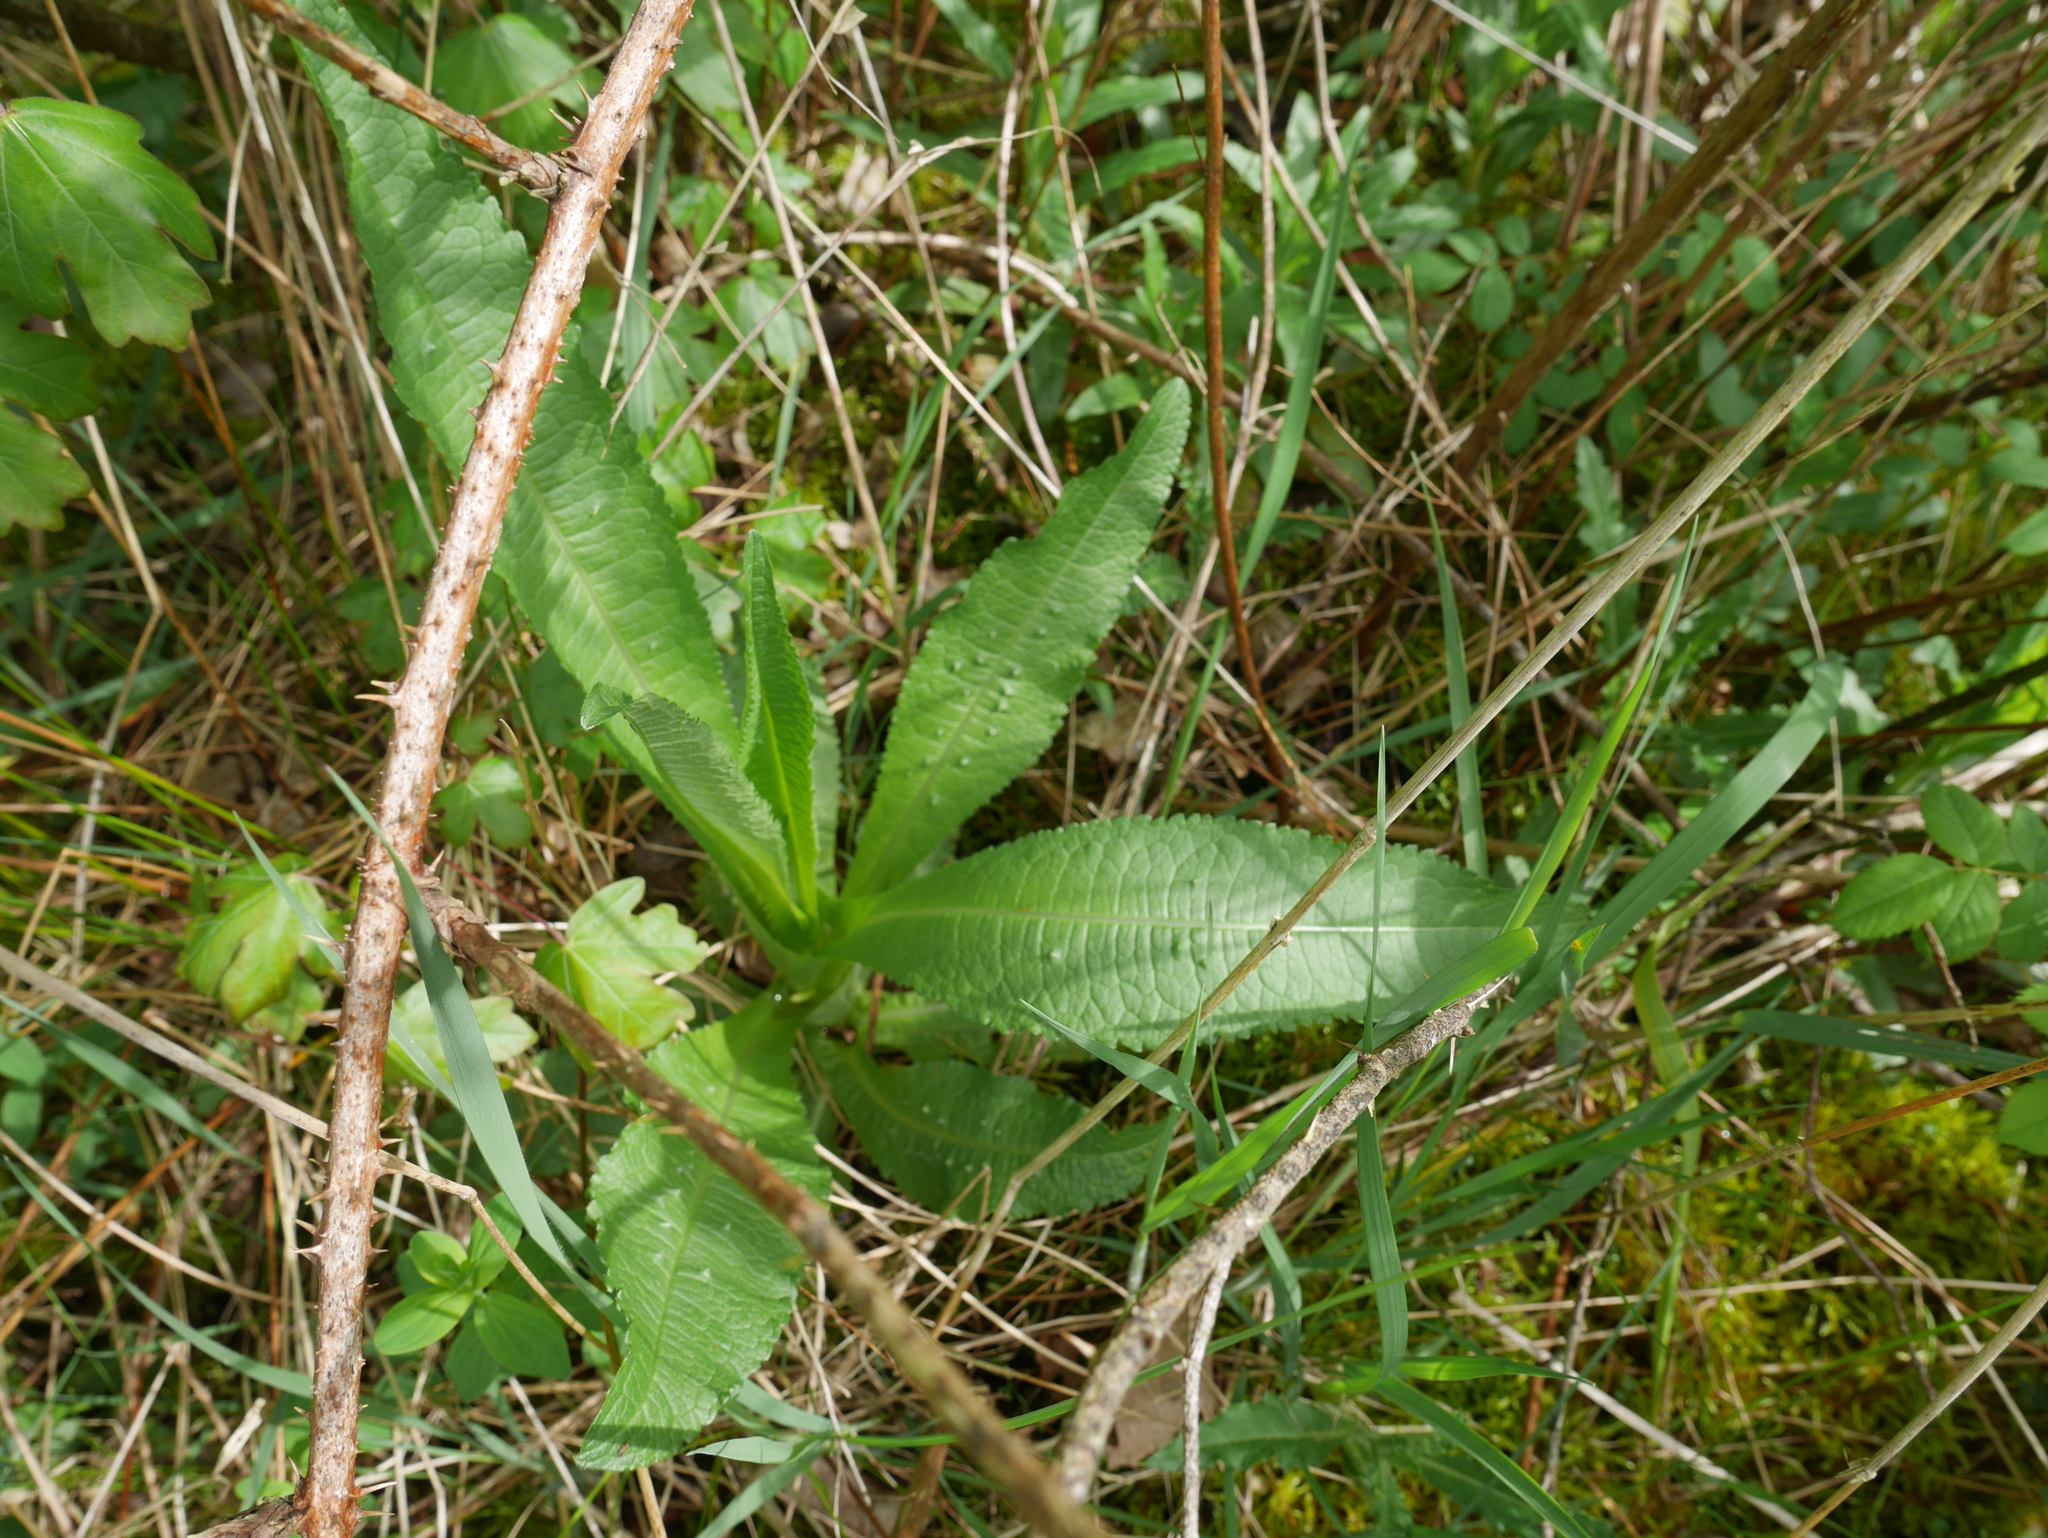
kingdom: Plantae
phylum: Tracheophyta
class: Magnoliopsida
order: Dipsacales
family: Caprifoliaceae
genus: Dipsacus
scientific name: Dipsacus fullonum
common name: Teasel
